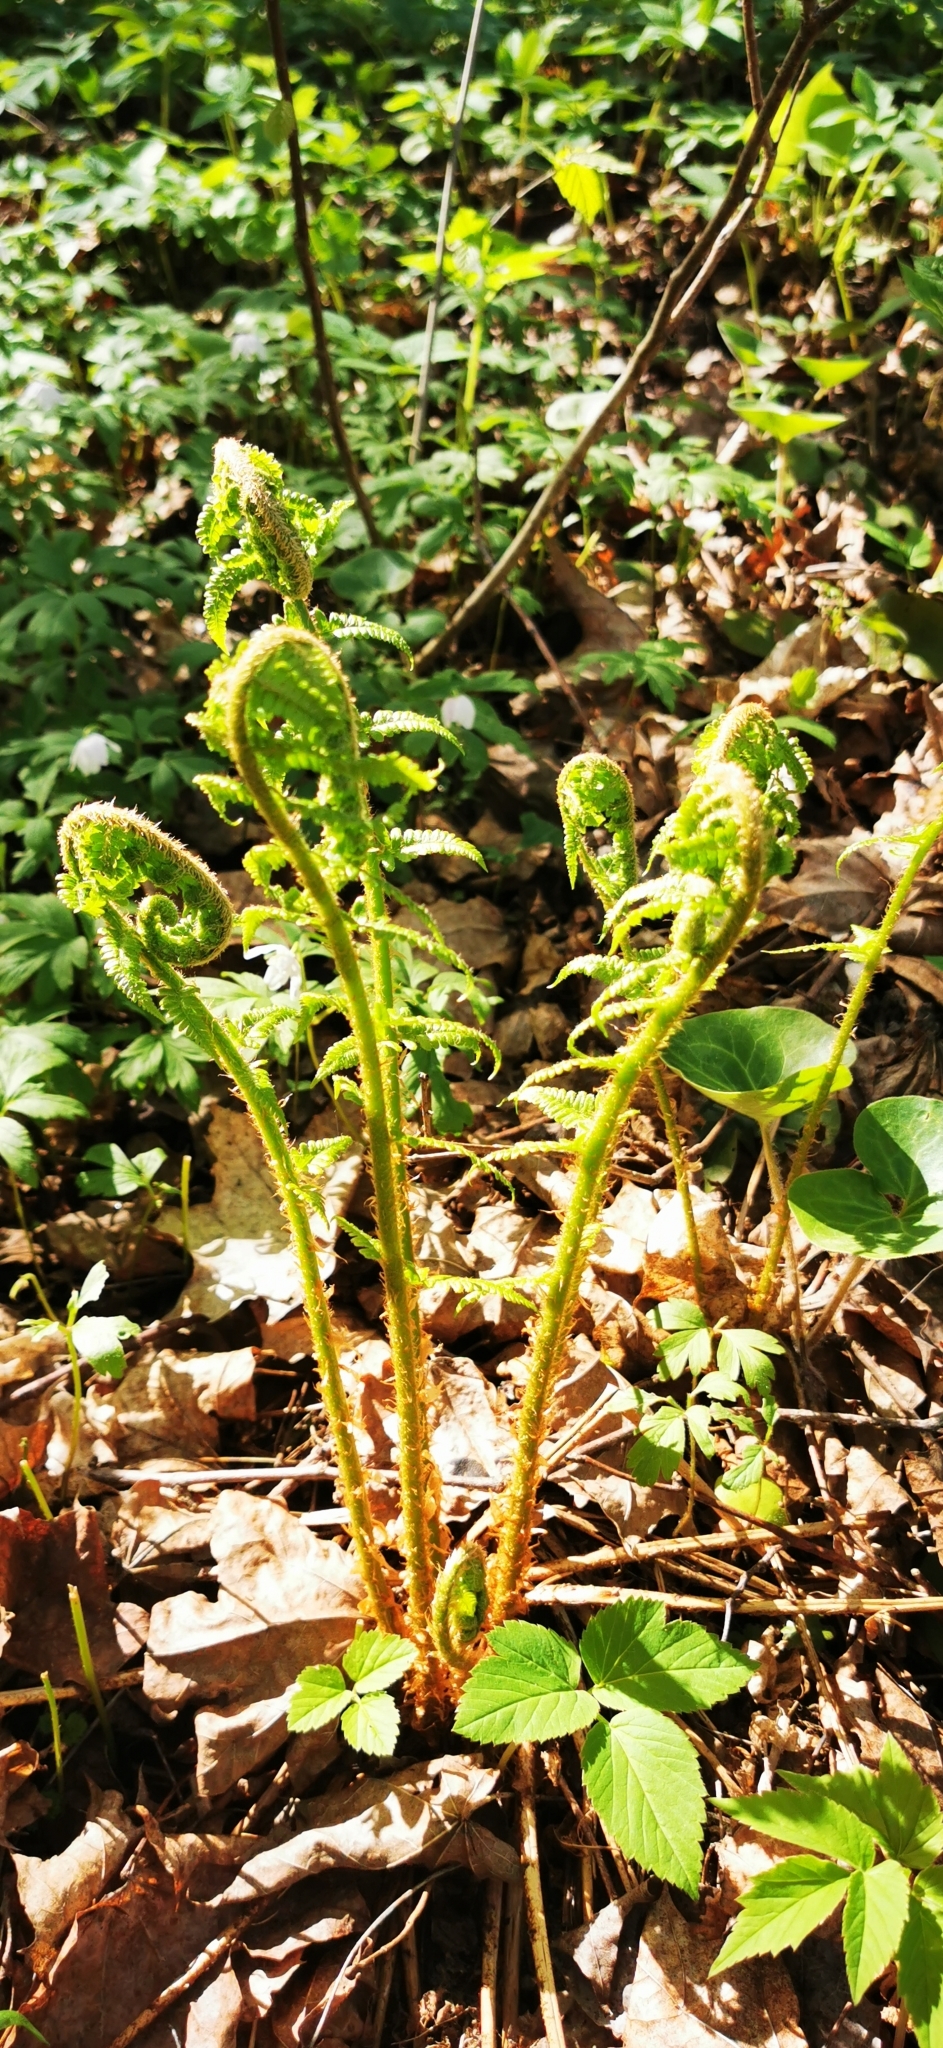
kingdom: Plantae
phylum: Tracheophyta
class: Polypodiopsida
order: Polypodiales
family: Dryopteridaceae
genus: Dryopteris
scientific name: Dryopteris filix-mas
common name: Male fern
